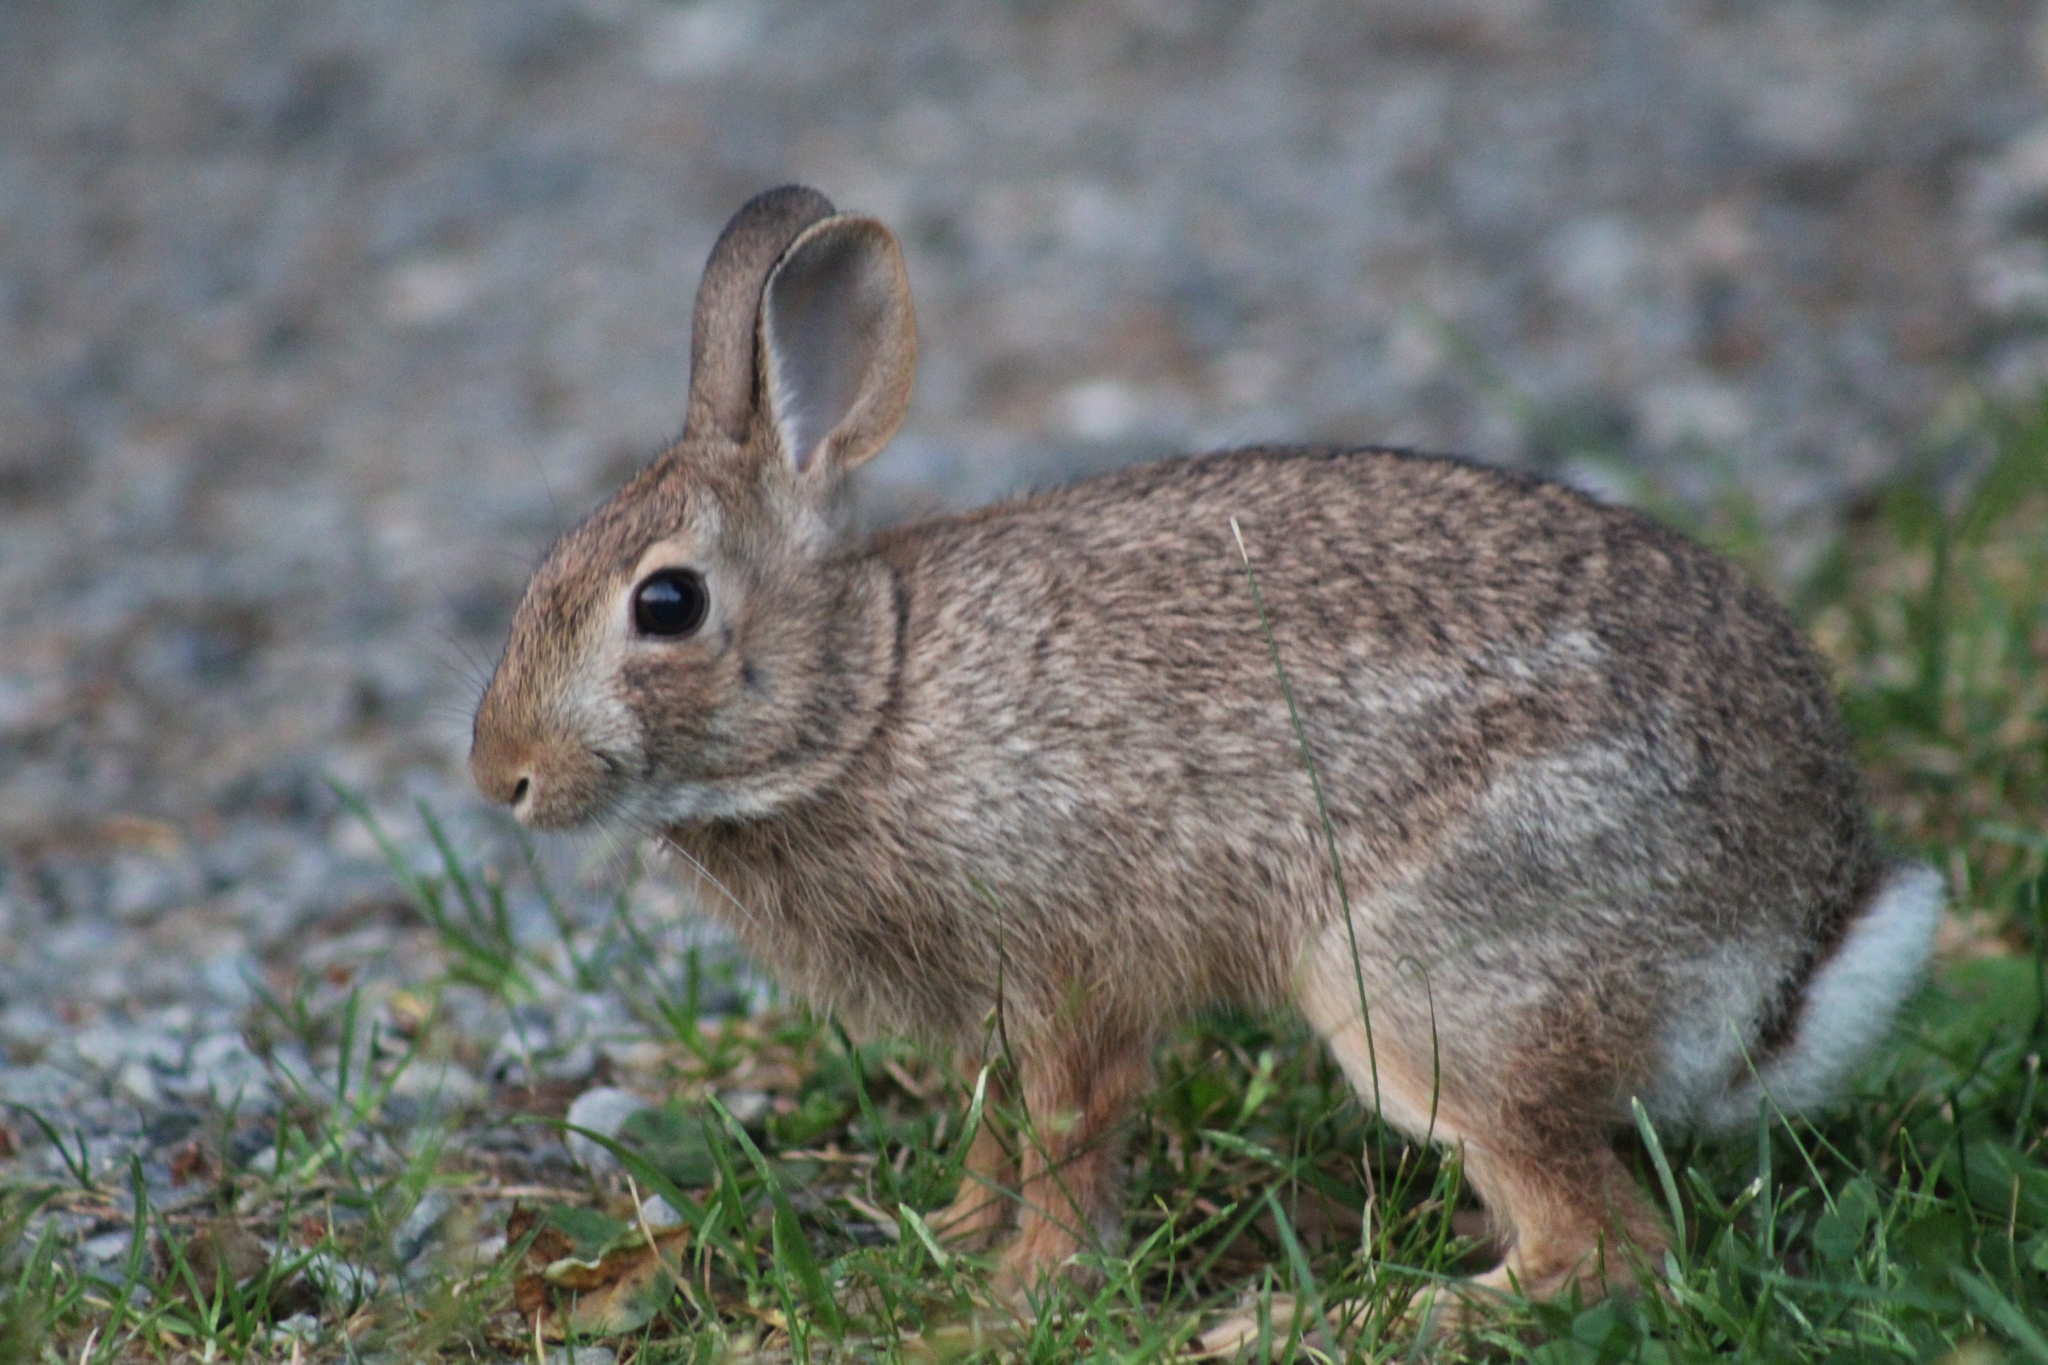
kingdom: Animalia
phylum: Chordata
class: Mammalia
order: Lagomorpha
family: Leporidae
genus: Sylvilagus
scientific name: Sylvilagus floridanus
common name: Eastern cottontail
